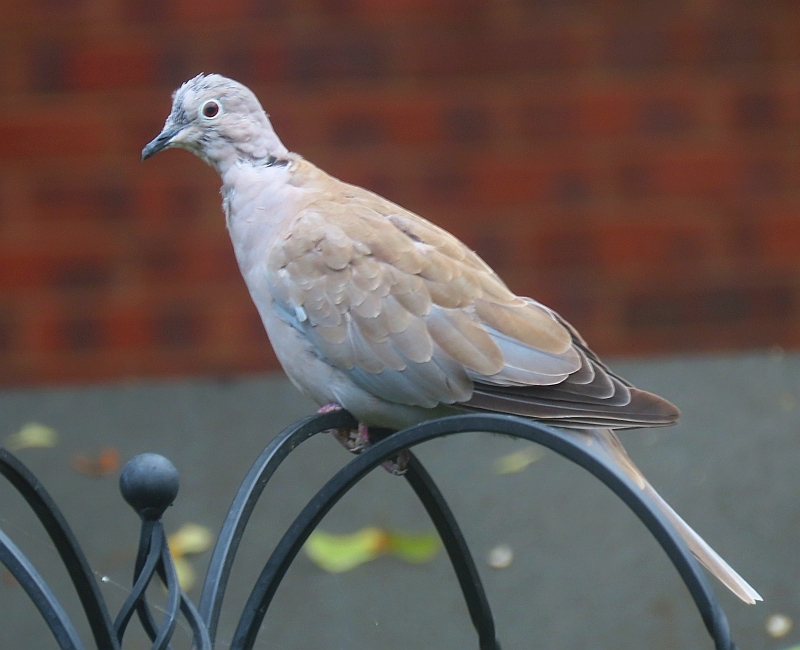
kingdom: Animalia
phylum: Chordata
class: Aves
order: Columbiformes
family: Columbidae
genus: Streptopelia
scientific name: Streptopelia decaocto
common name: Eurasian collared dove
